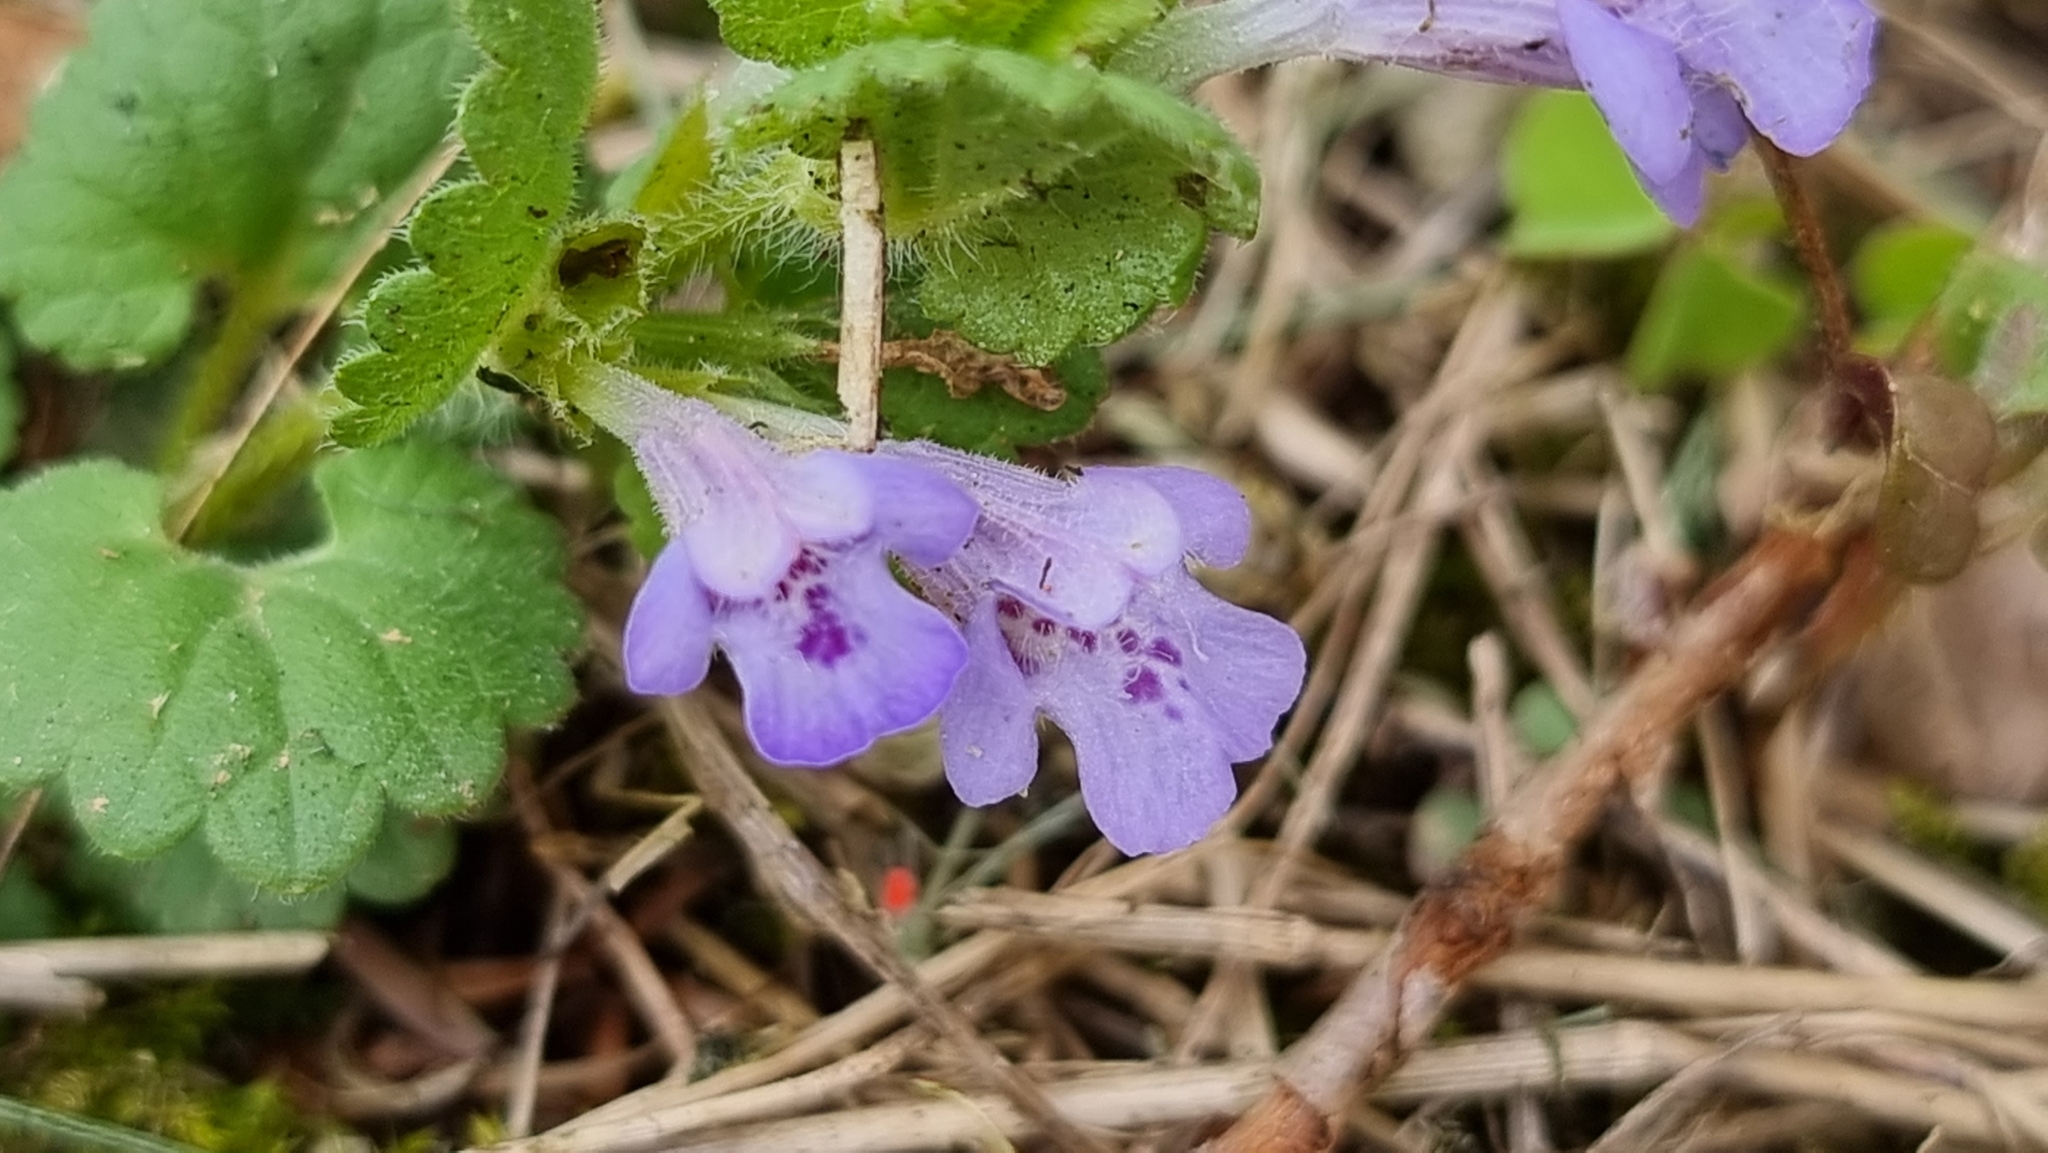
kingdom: Plantae
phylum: Tracheophyta
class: Magnoliopsida
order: Lamiales
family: Lamiaceae
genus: Glechoma
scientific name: Glechoma hederacea
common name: Ground ivy
